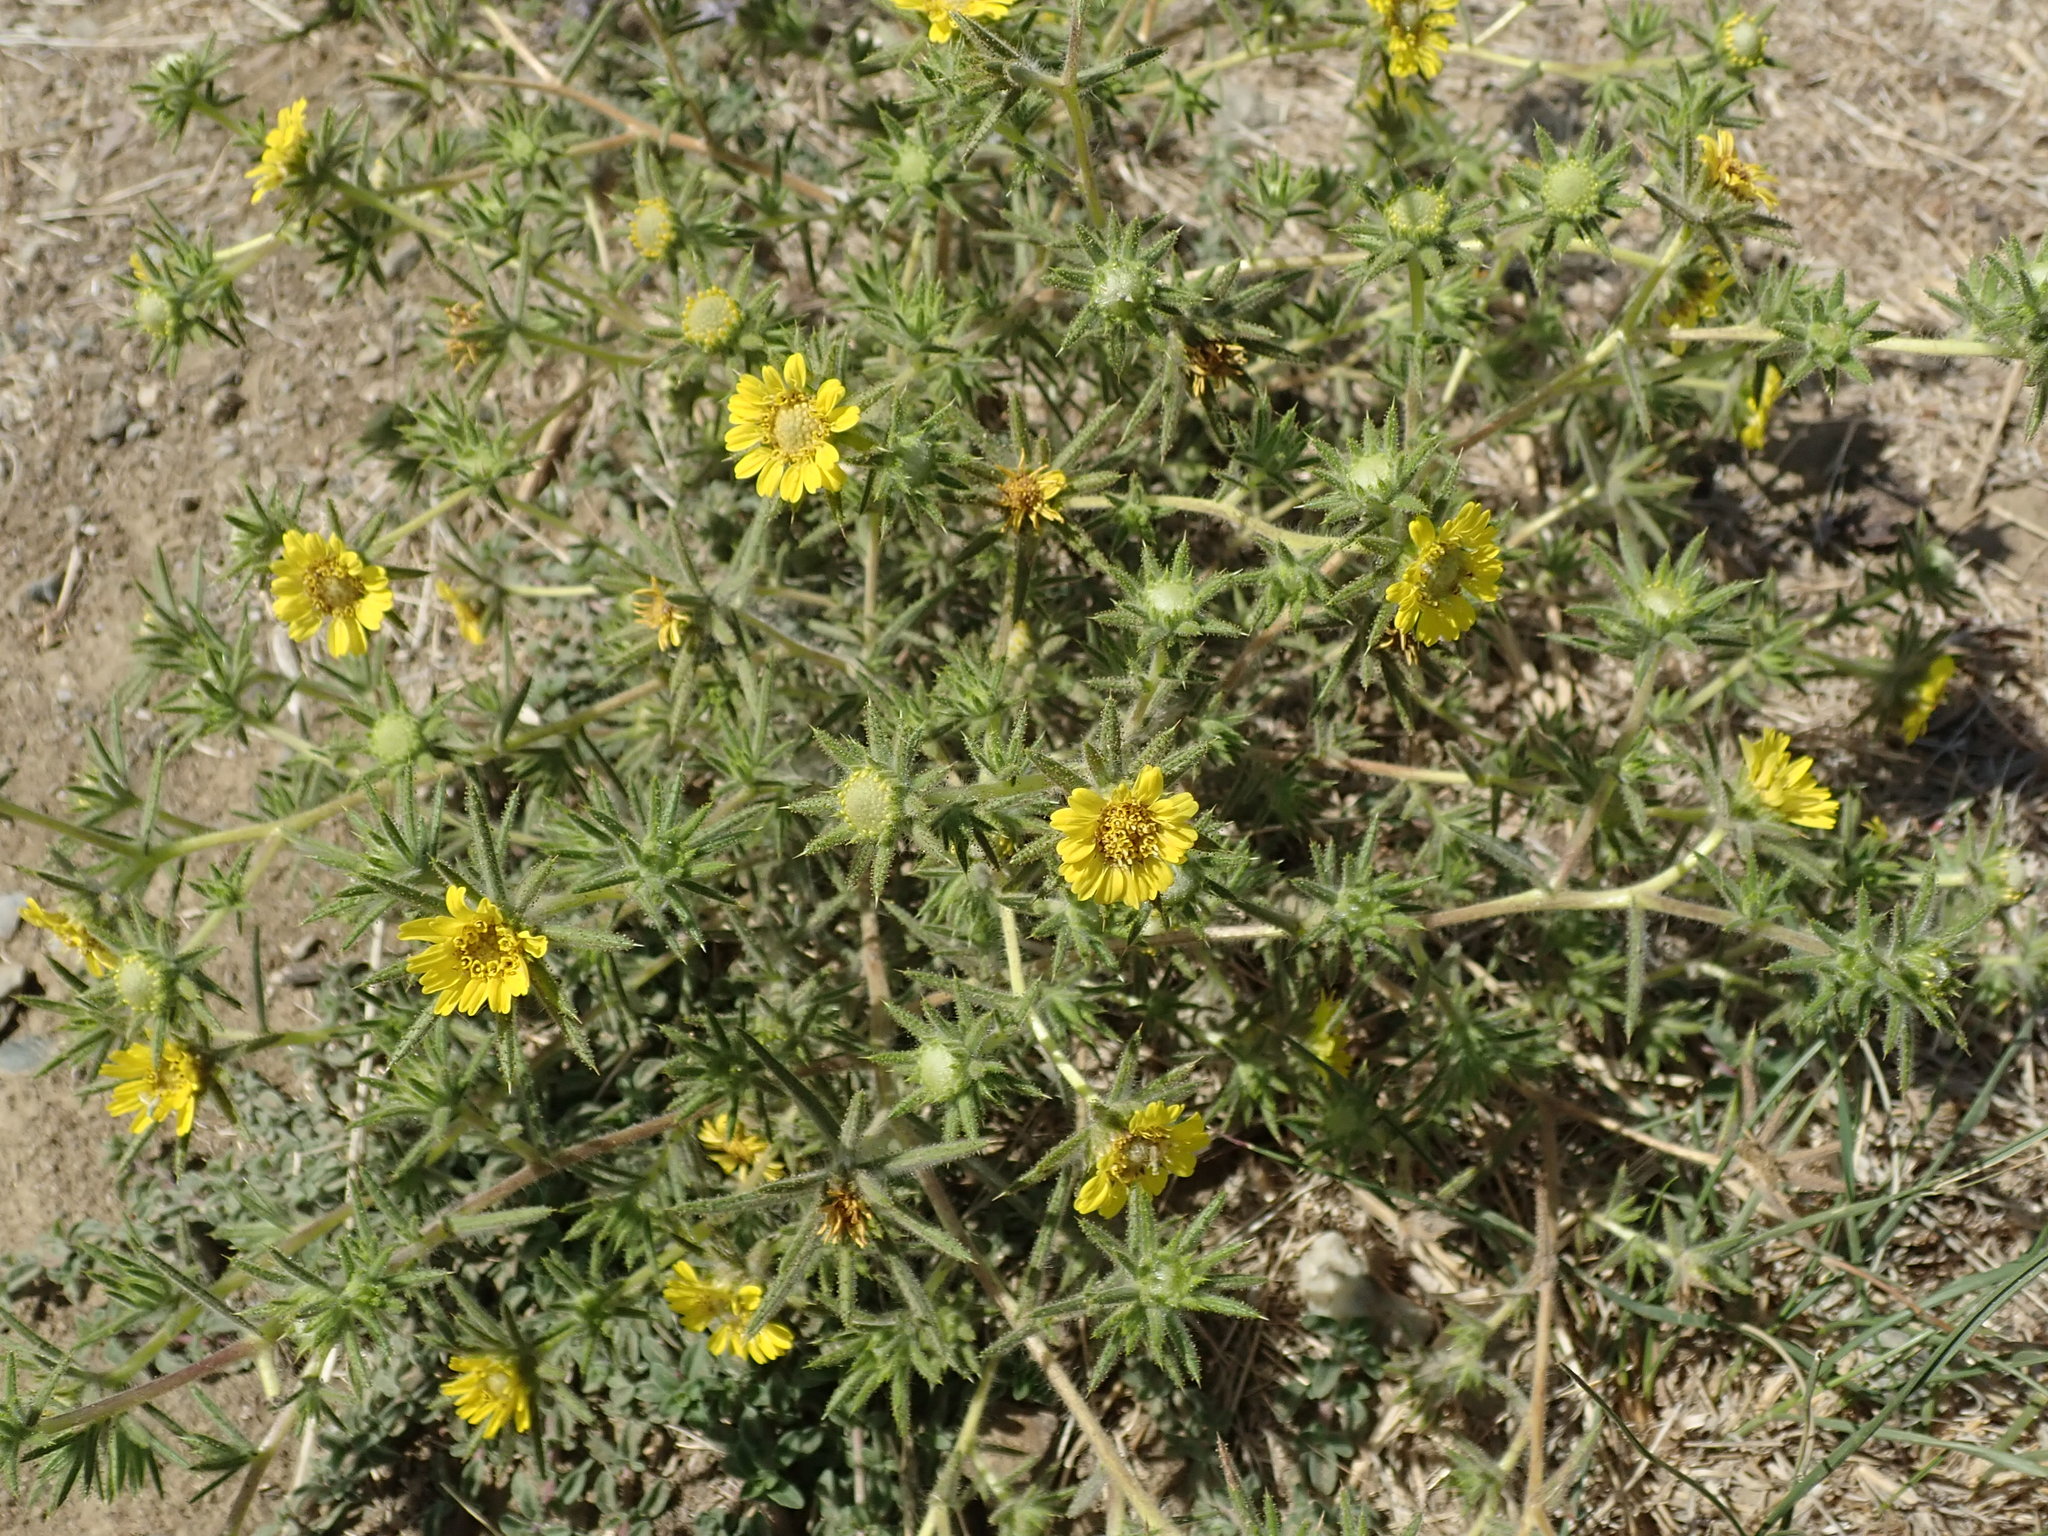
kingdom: Plantae
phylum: Tracheophyta
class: Magnoliopsida
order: Asterales
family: Asteraceae
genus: Centromadia
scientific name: Centromadia fitchii
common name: Fitch's spikeweed
